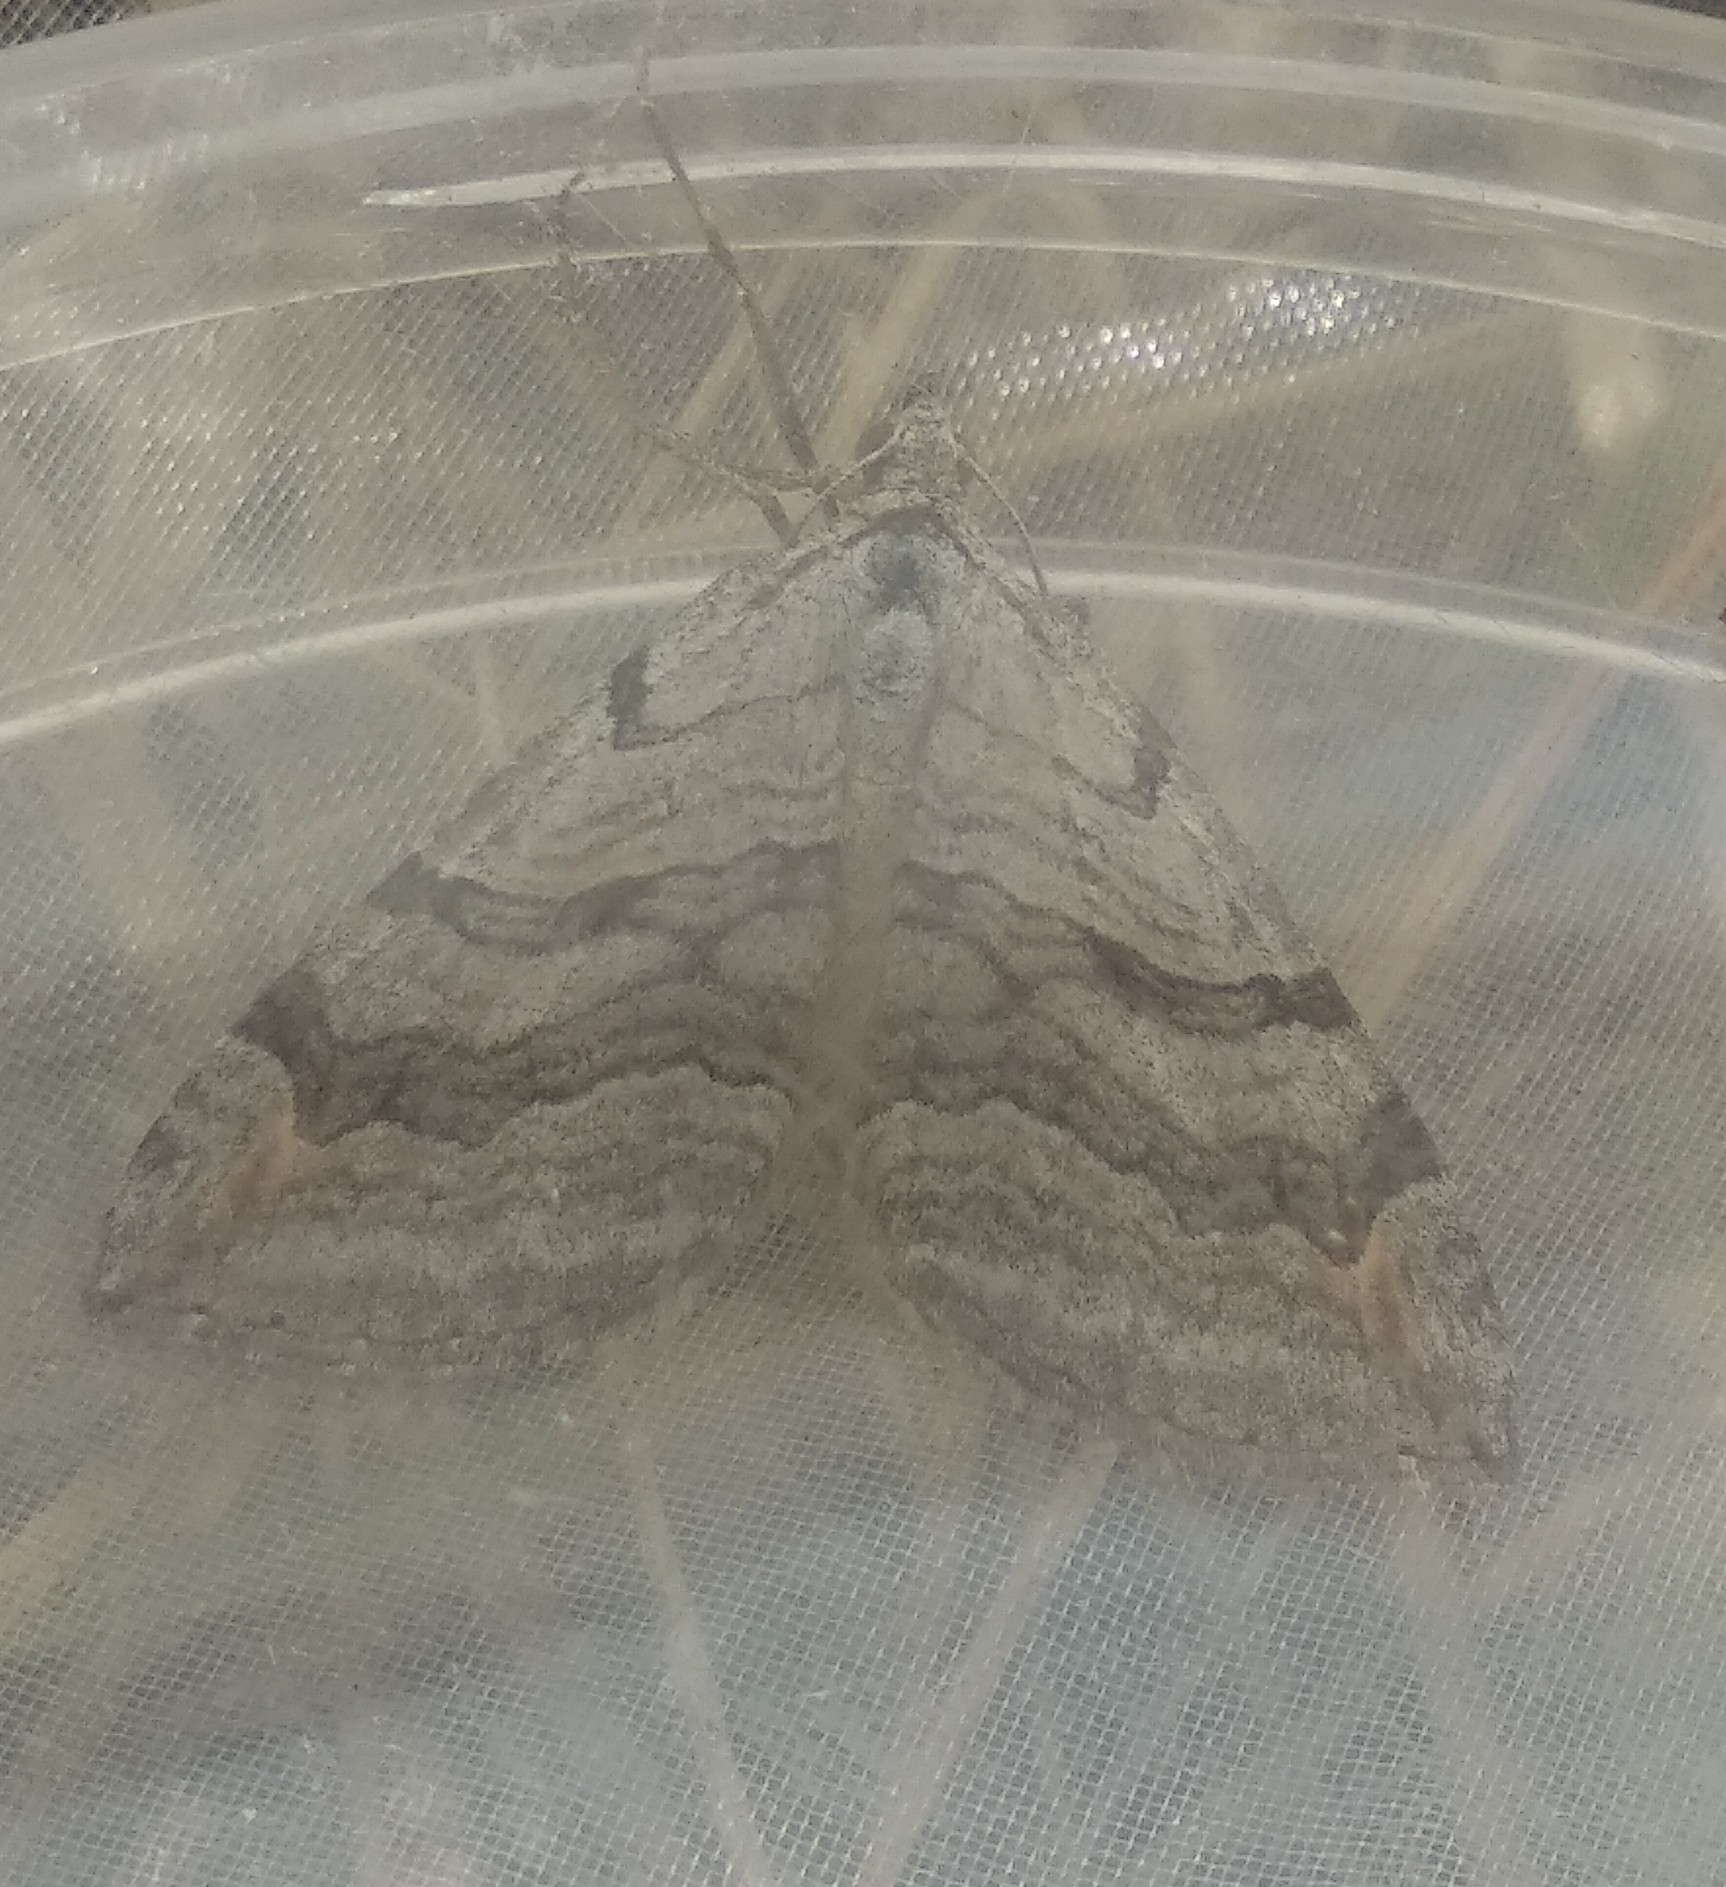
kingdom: Animalia
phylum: Arthropoda
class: Insecta
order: Lepidoptera
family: Geometridae
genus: Aplocera
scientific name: Aplocera plagiata
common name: Treble-bar
